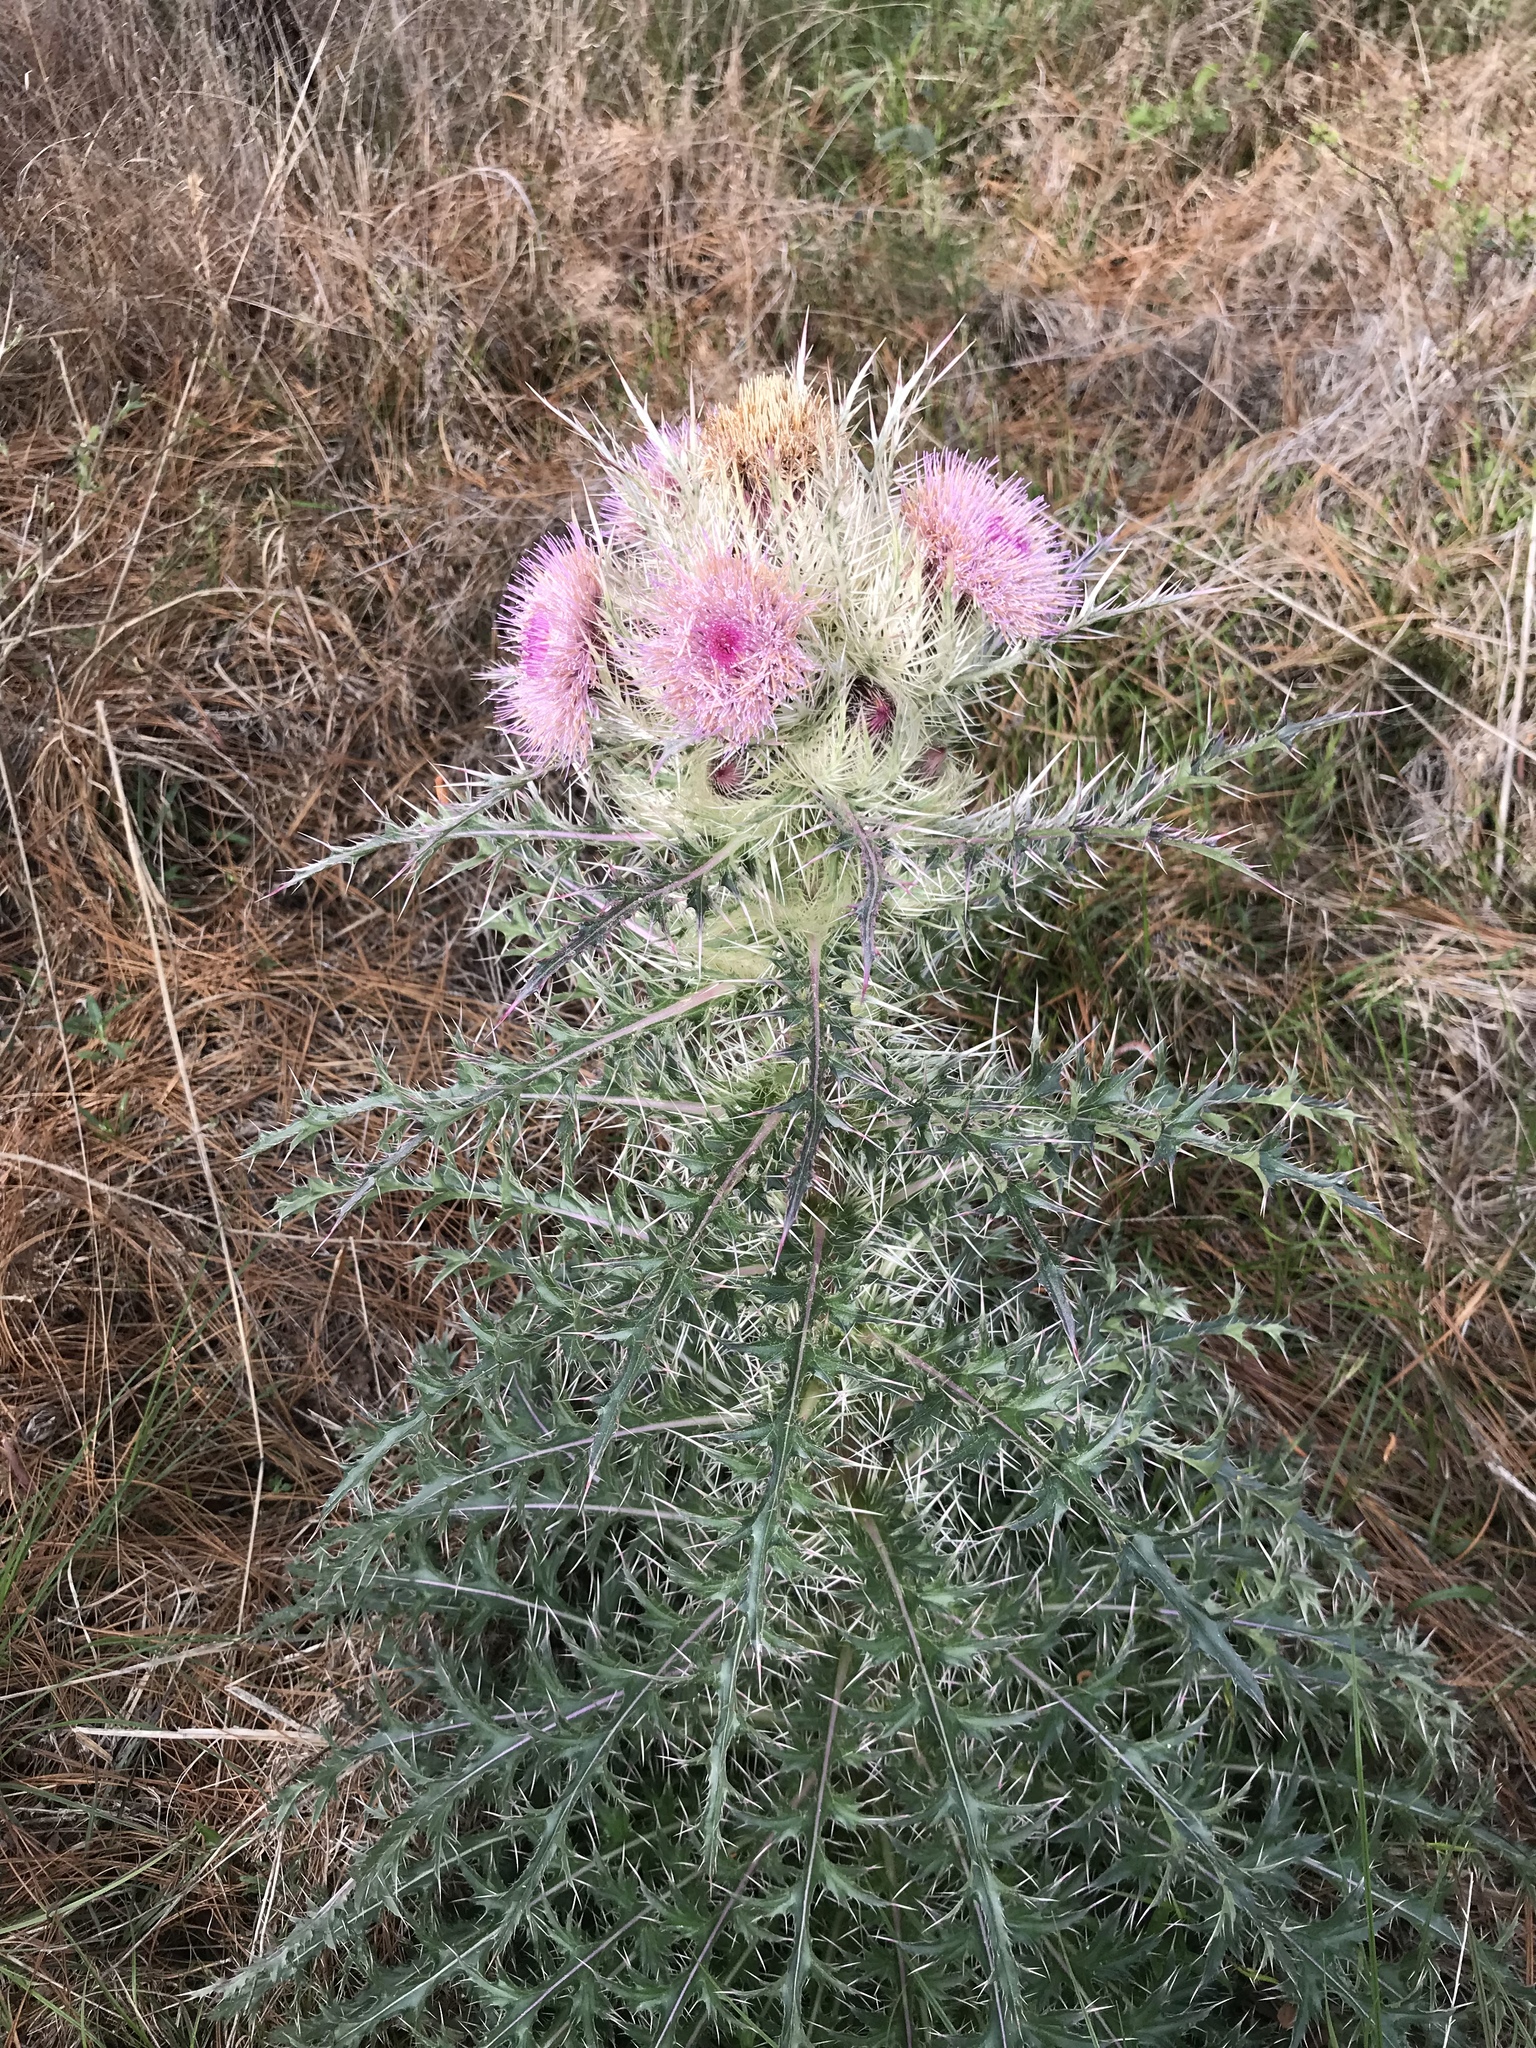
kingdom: Plantae
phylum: Tracheophyta
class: Magnoliopsida
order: Asterales
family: Asteraceae
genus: Cirsium
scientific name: Cirsium horridulum
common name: Bristly thistle
